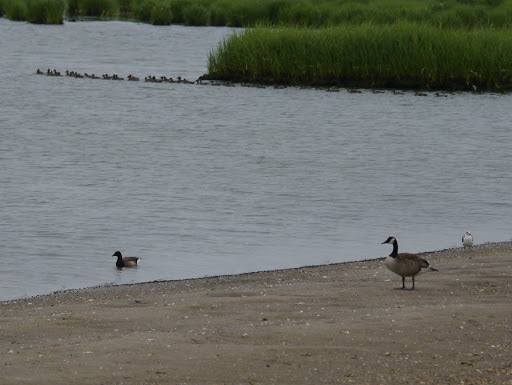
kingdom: Animalia
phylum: Chordata
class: Aves
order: Anseriformes
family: Anatidae
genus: Branta
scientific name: Branta bernicla
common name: Brant goose
